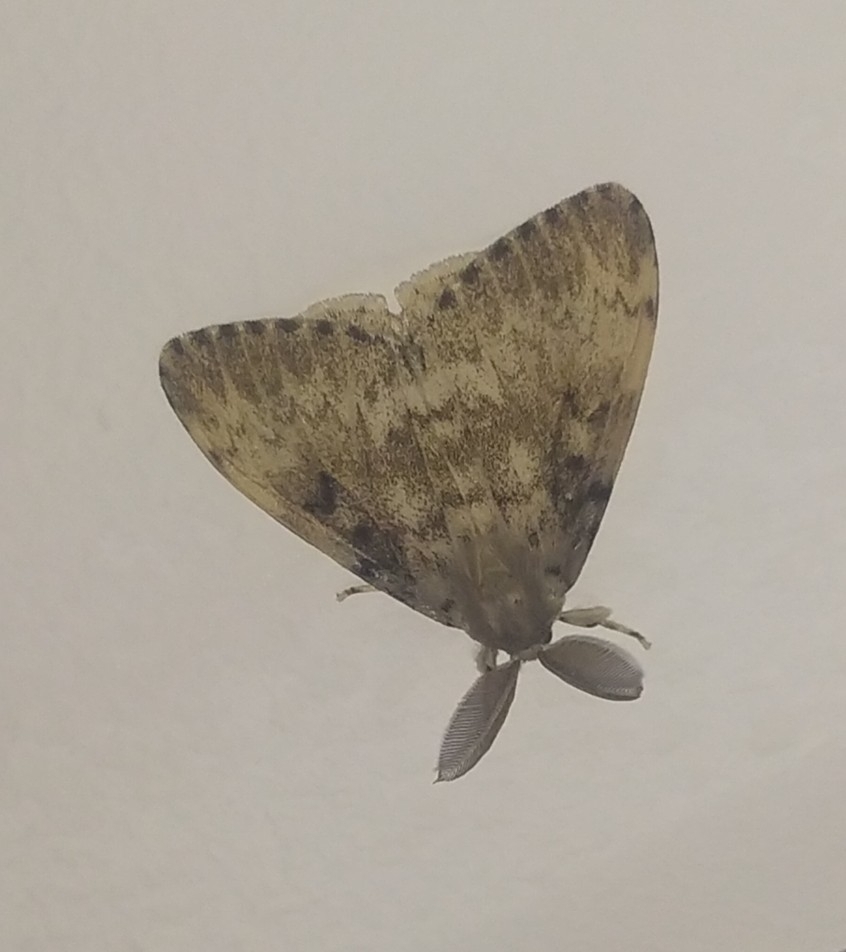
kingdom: Animalia
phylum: Arthropoda
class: Insecta
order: Lepidoptera
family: Erebidae
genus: Lymantria
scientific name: Lymantria dispar
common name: Gypsy moth
